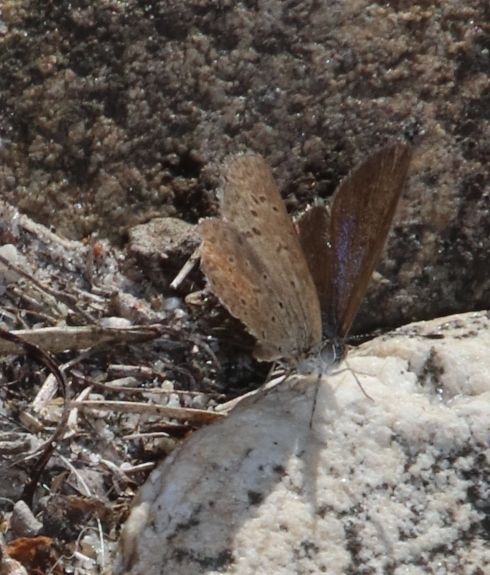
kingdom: Animalia
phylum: Arthropoda
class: Insecta
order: Lepidoptera
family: Lycaenidae
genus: Zizeeria
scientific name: Zizeeria knysna
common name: African grass blue
